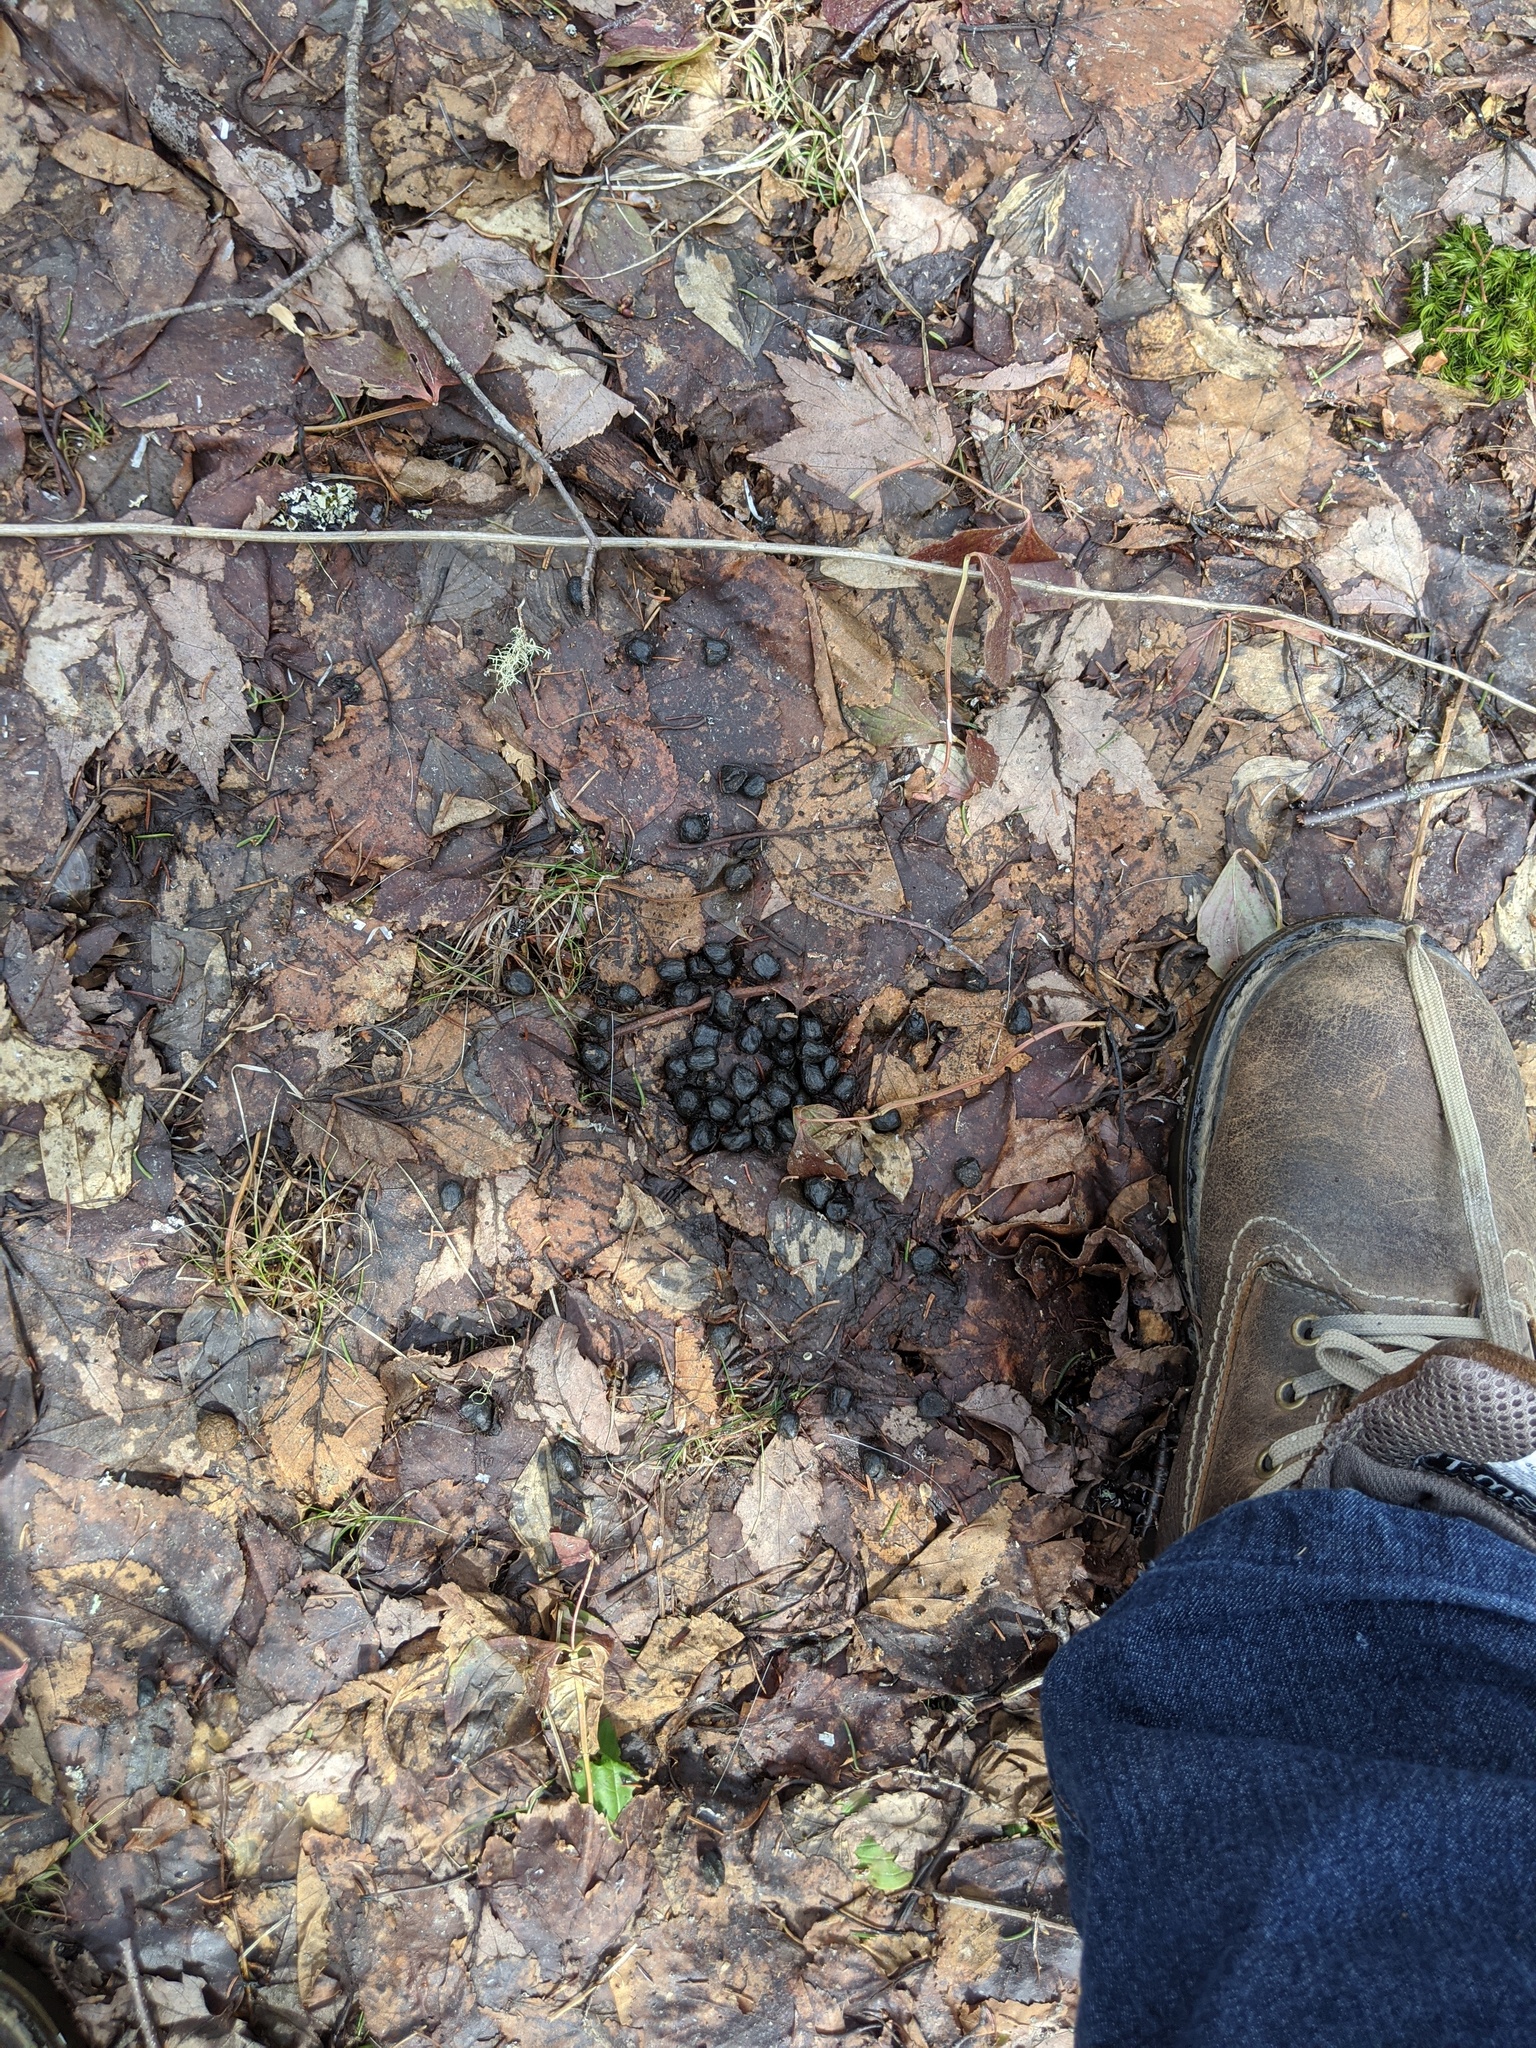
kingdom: Animalia
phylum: Chordata
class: Mammalia
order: Artiodactyla
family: Cervidae
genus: Odocoileus
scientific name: Odocoileus virginianus
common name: White-tailed deer
